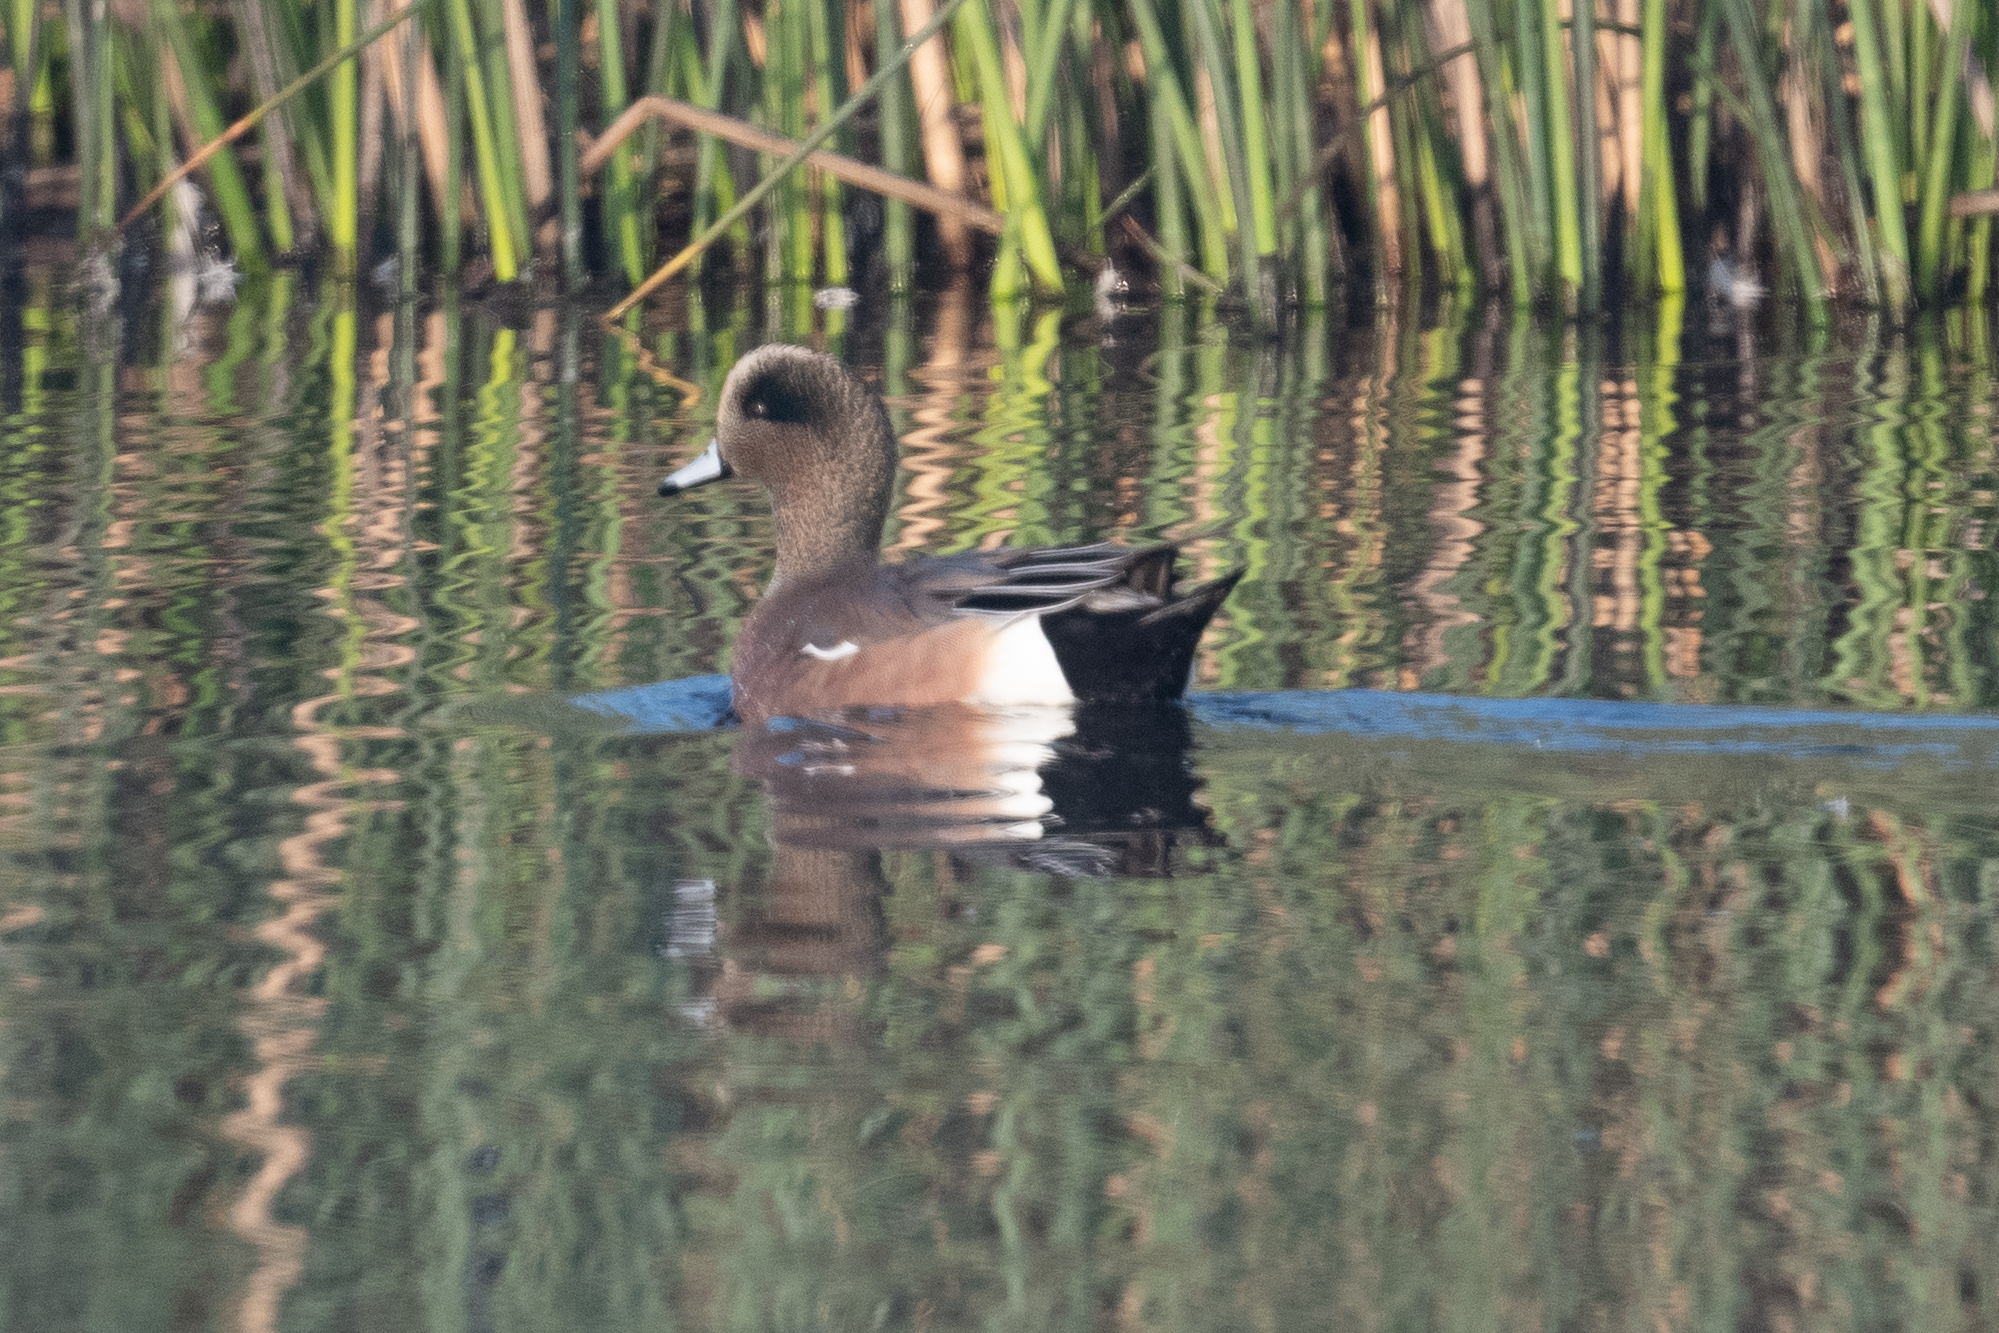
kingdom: Animalia
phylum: Chordata
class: Aves
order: Anseriformes
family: Anatidae
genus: Mareca
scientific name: Mareca americana
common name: American wigeon
